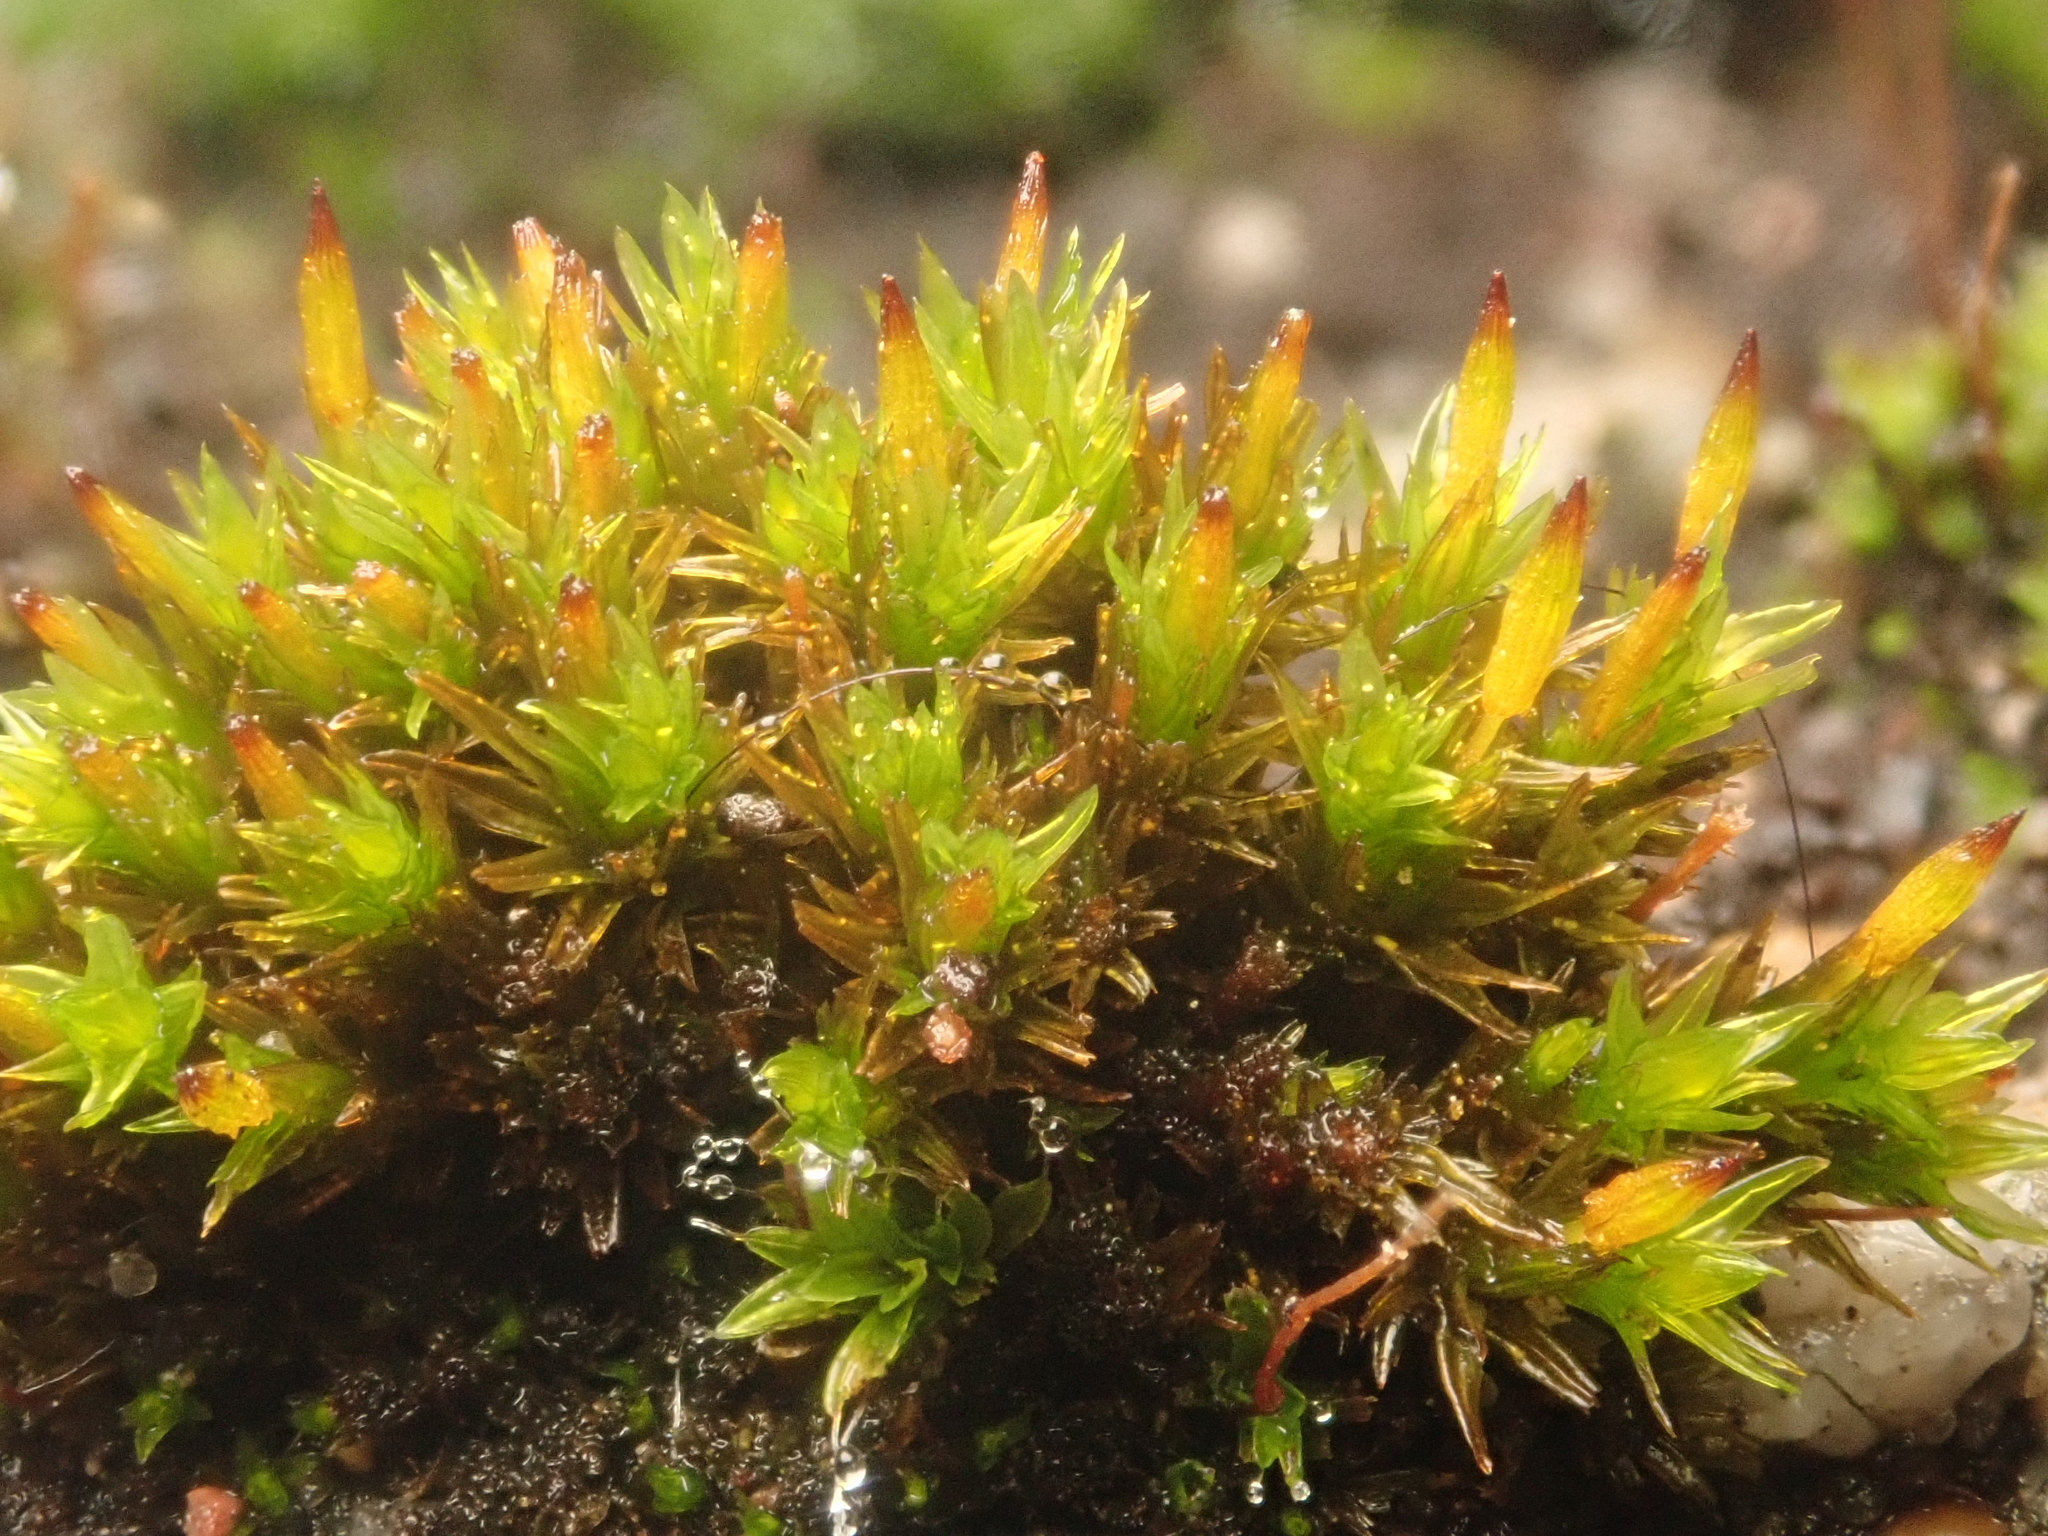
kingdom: Plantae
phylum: Bryophyta
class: Bryopsida
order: Orthotrichales
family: Orthotrichaceae
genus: Orthotrichum
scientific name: Orthotrichum anomalum
